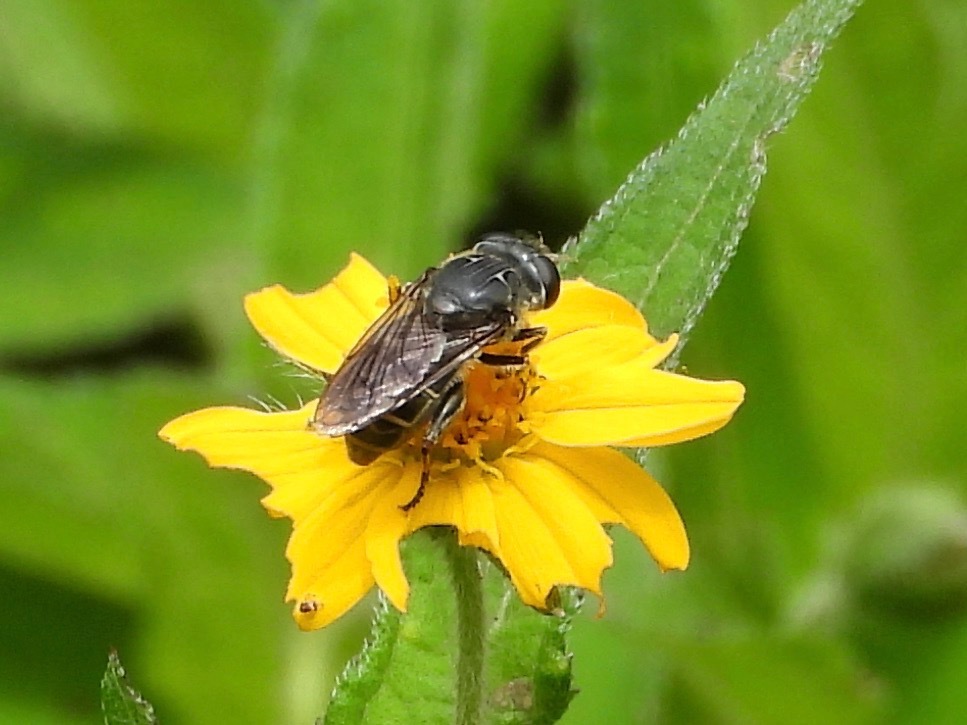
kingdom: Animalia
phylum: Arthropoda
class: Insecta
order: Diptera
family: Syrphidae
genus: Asemosyrphus
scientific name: Asemosyrphus
